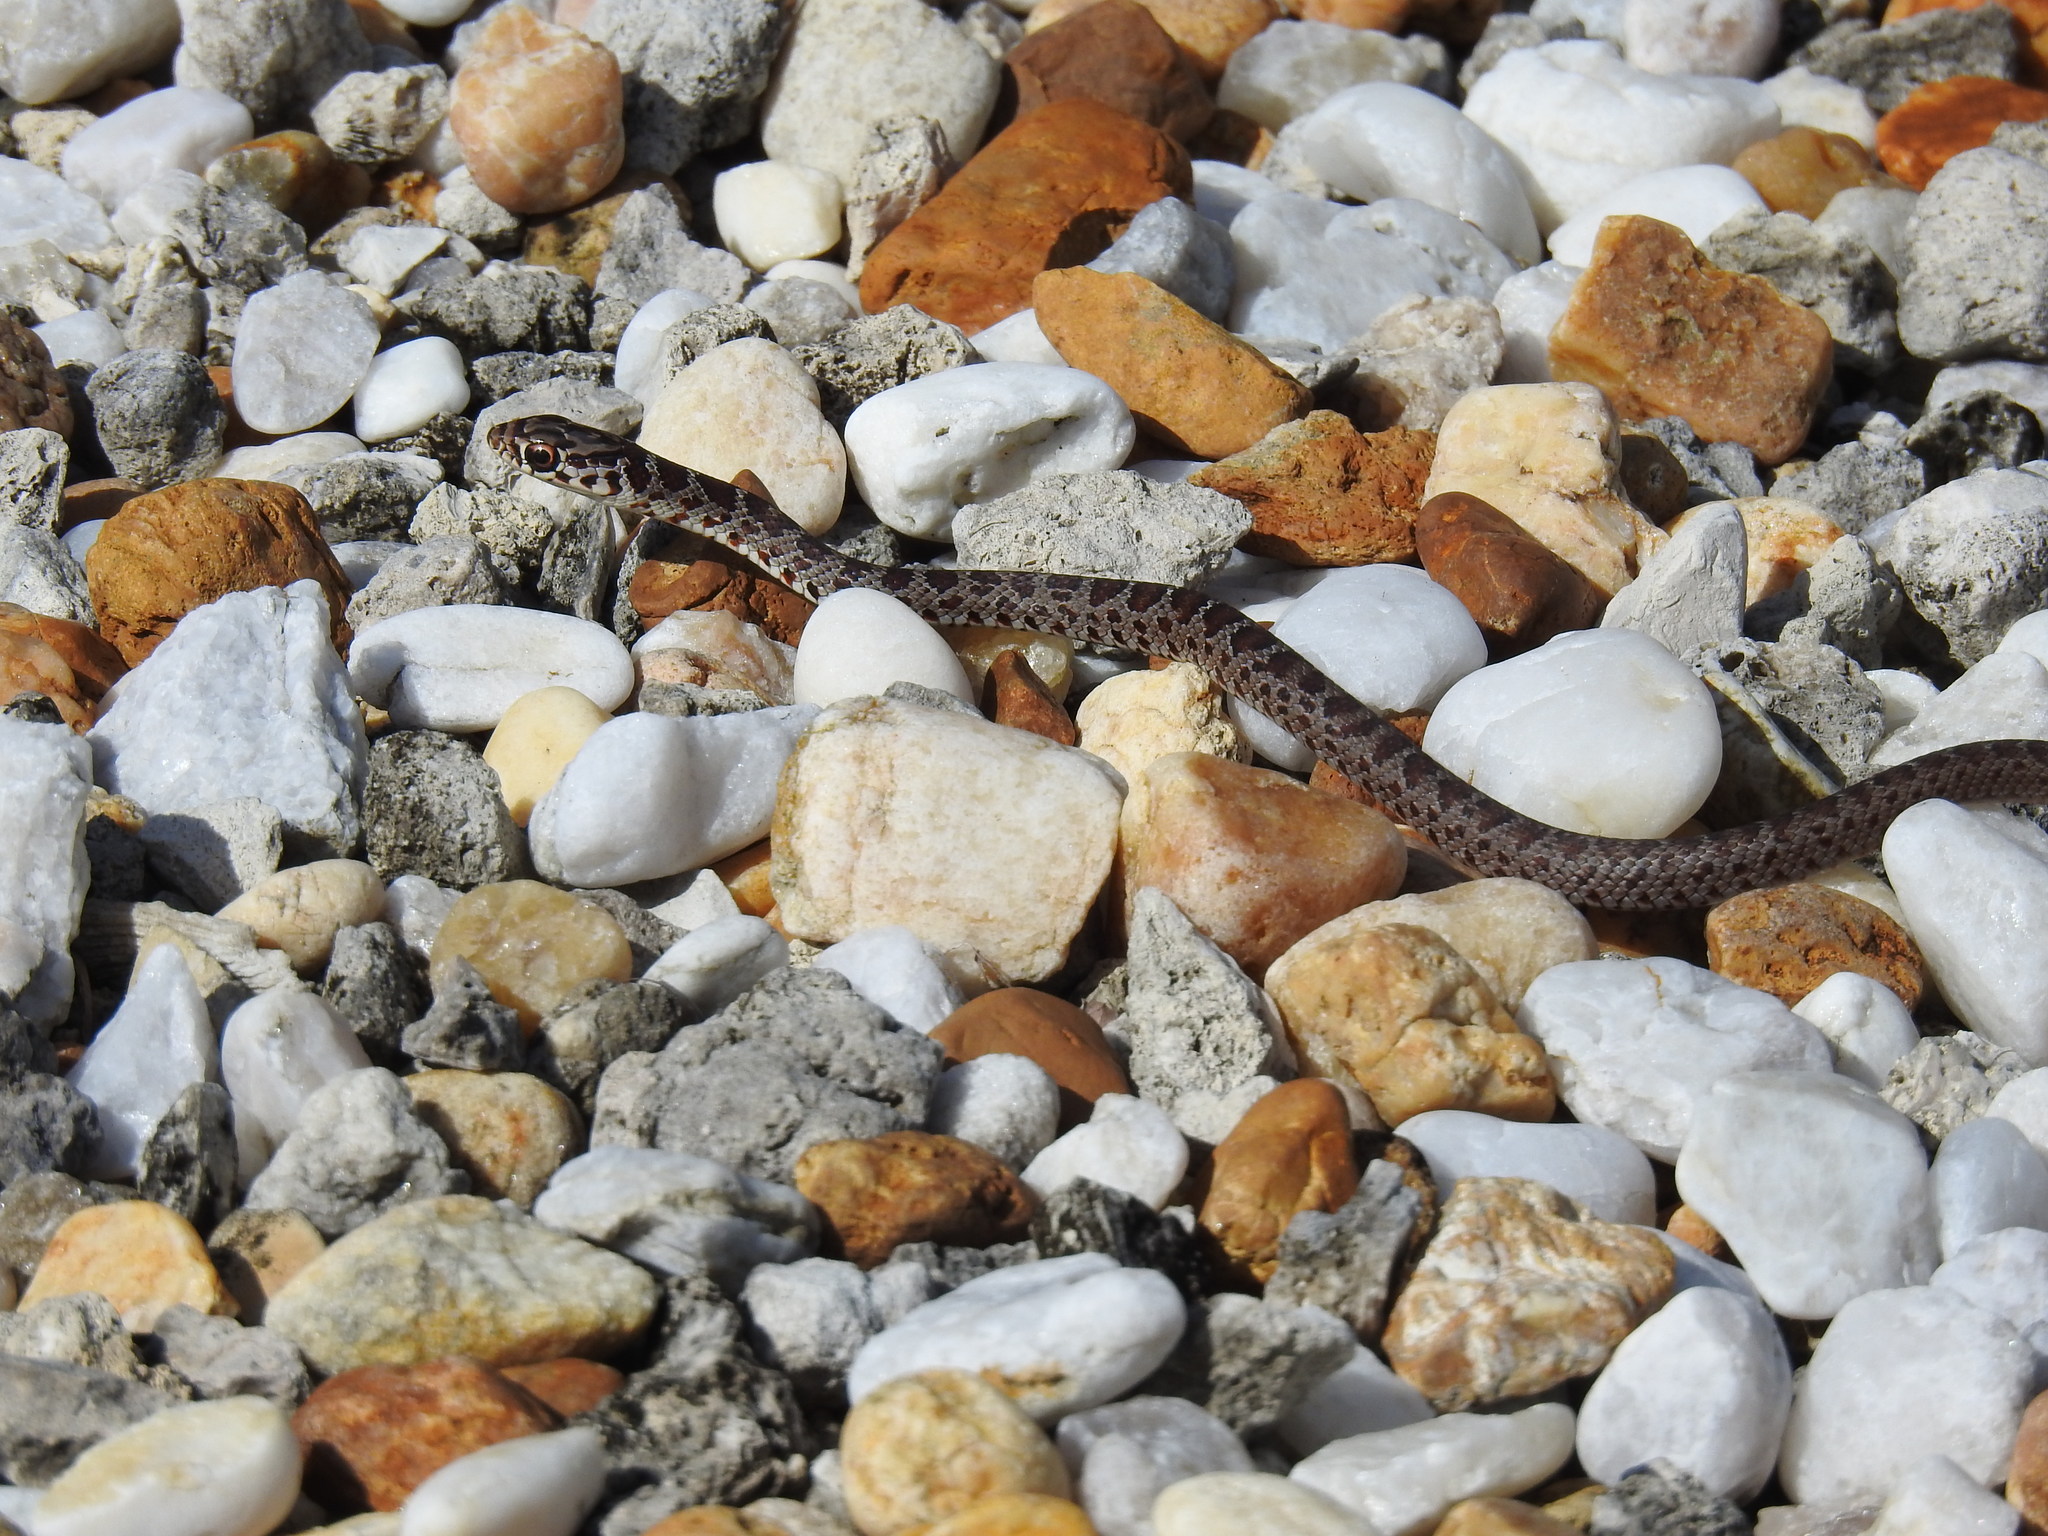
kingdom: Animalia
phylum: Chordata
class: Squamata
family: Colubridae
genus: Coluber
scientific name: Coluber constrictor
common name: Eastern racer
